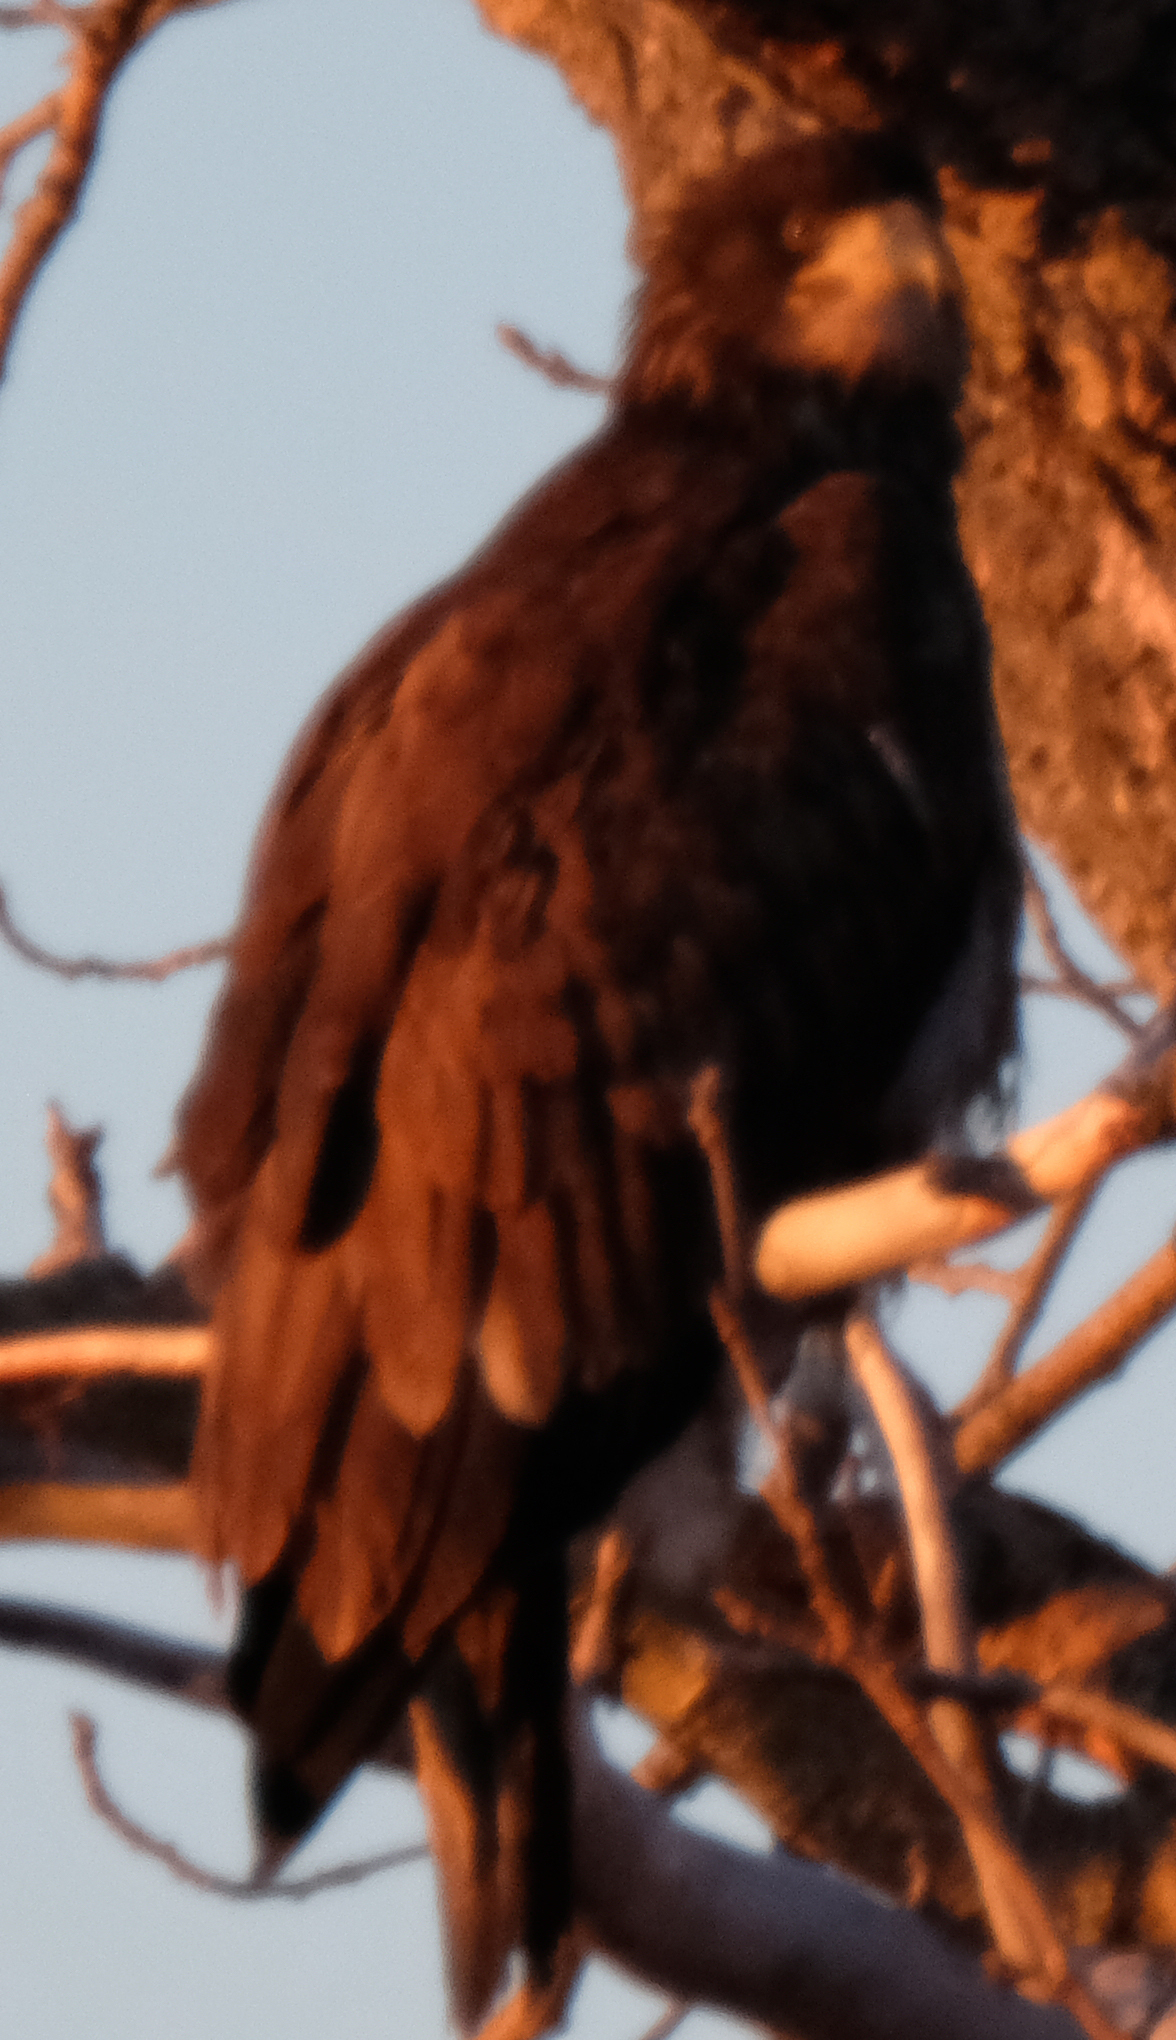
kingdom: Animalia
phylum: Chordata
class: Aves
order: Accipitriformes
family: Accipitridae
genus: Haliaeetus
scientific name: Haliaeetus leucocephalus
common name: Bald eagle
